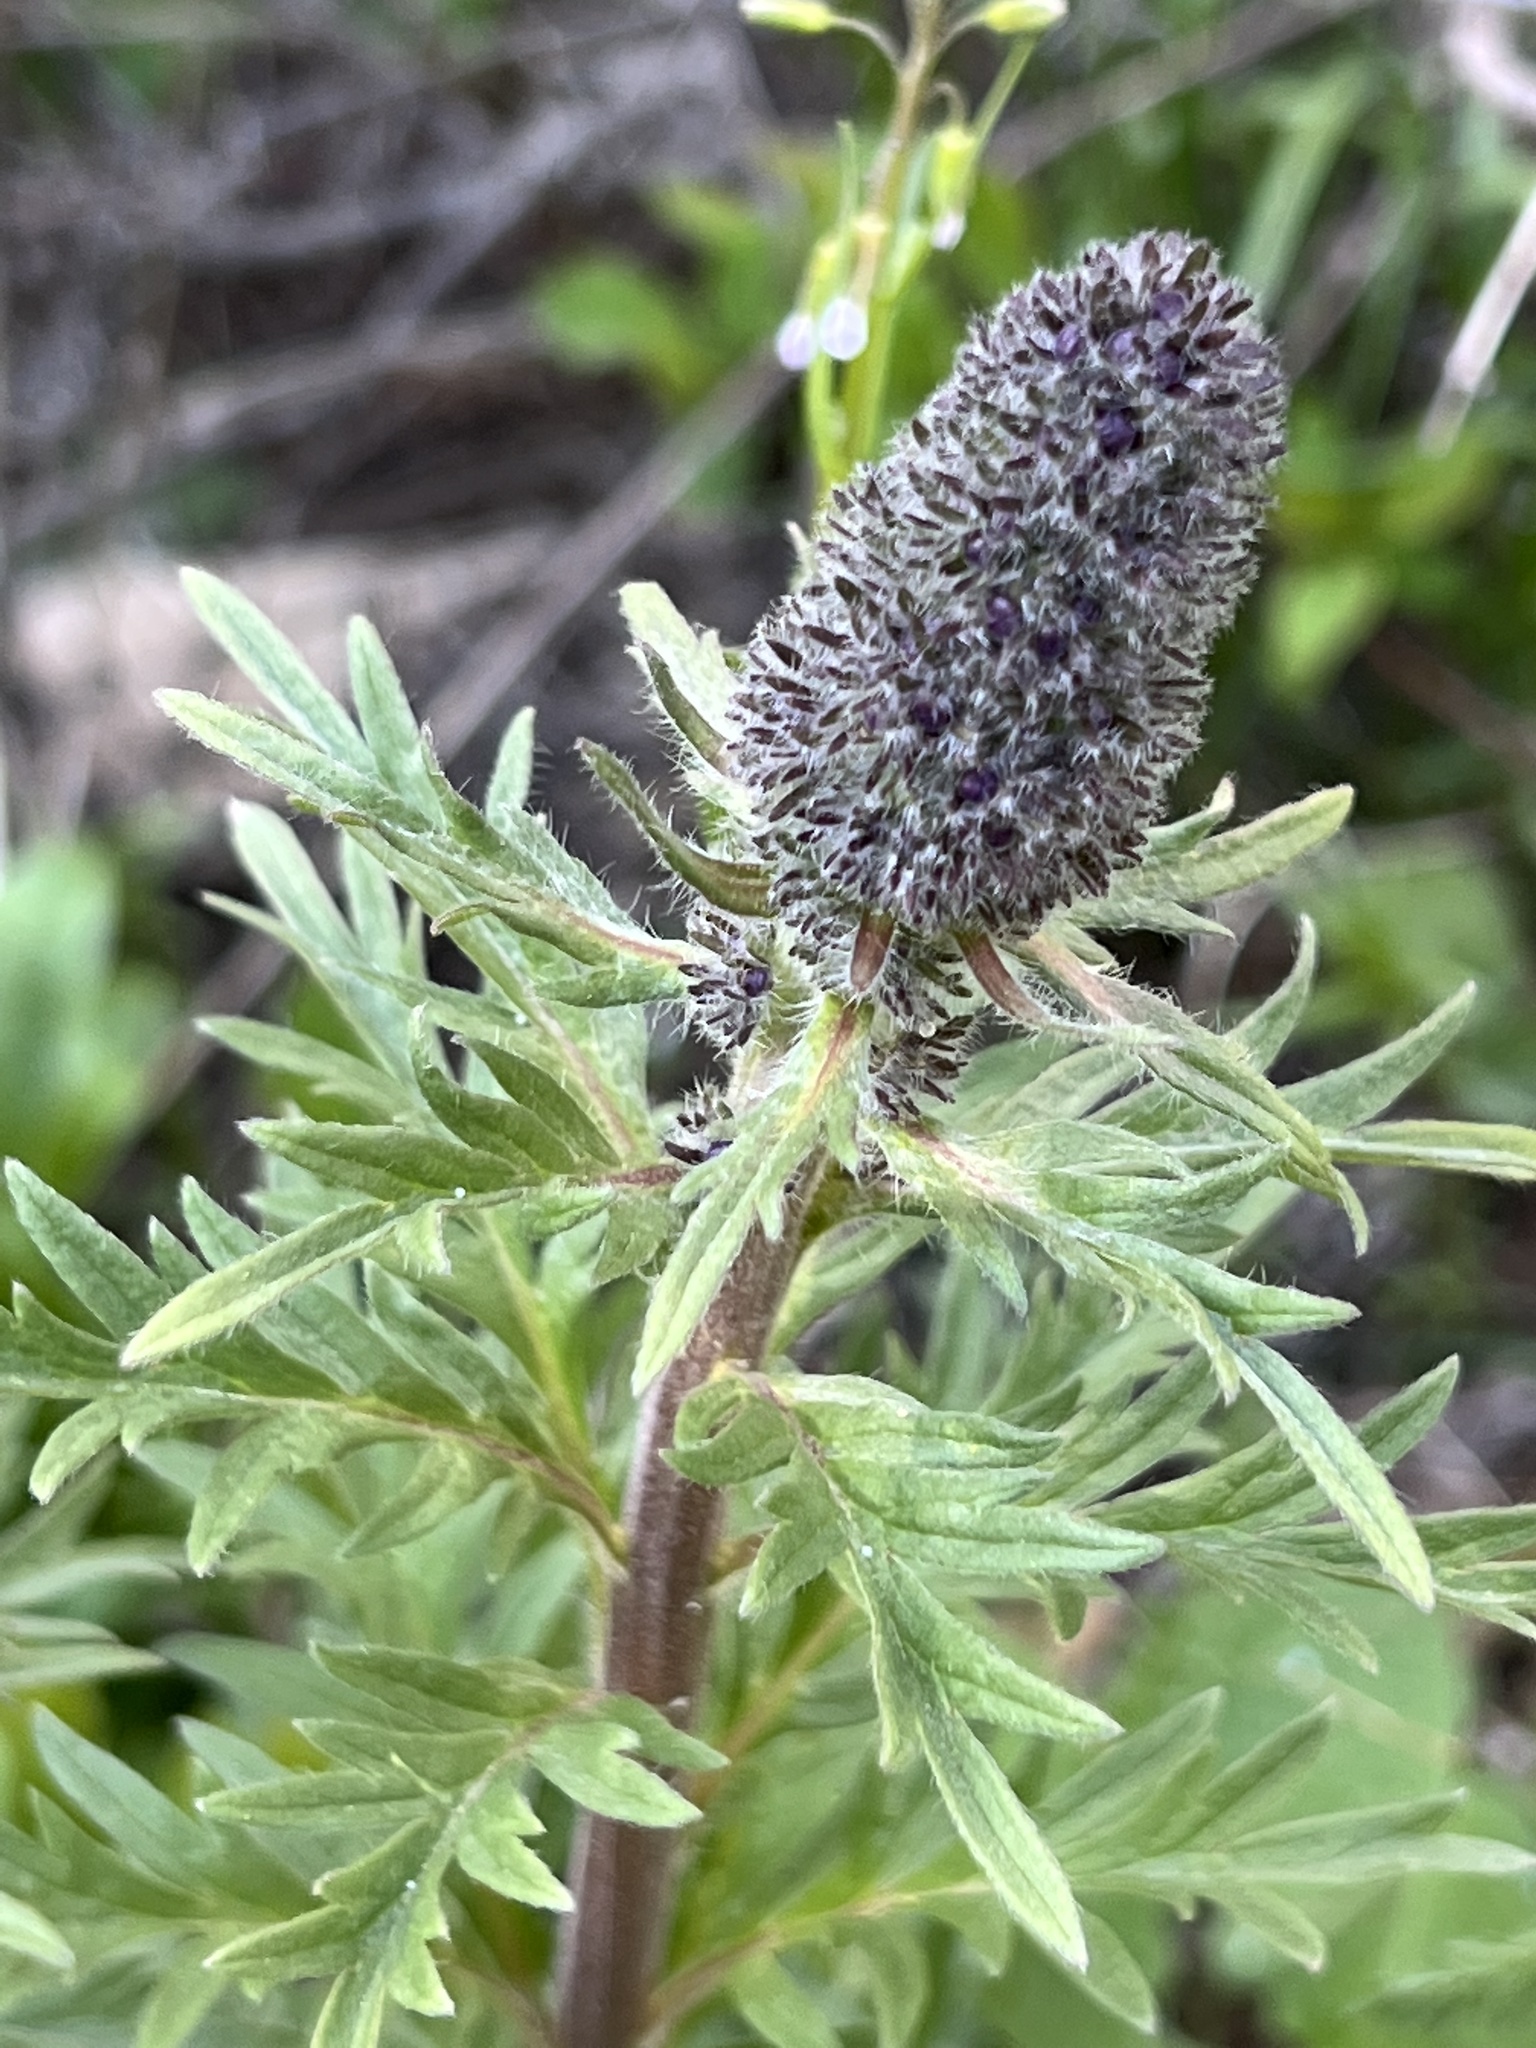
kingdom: Plantae
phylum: Tracheophyta
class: Magnoliopsida
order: Boraginales
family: Hydrophyllaceae
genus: Phacelia
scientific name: Phacelia sericea
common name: Silky phacelia
